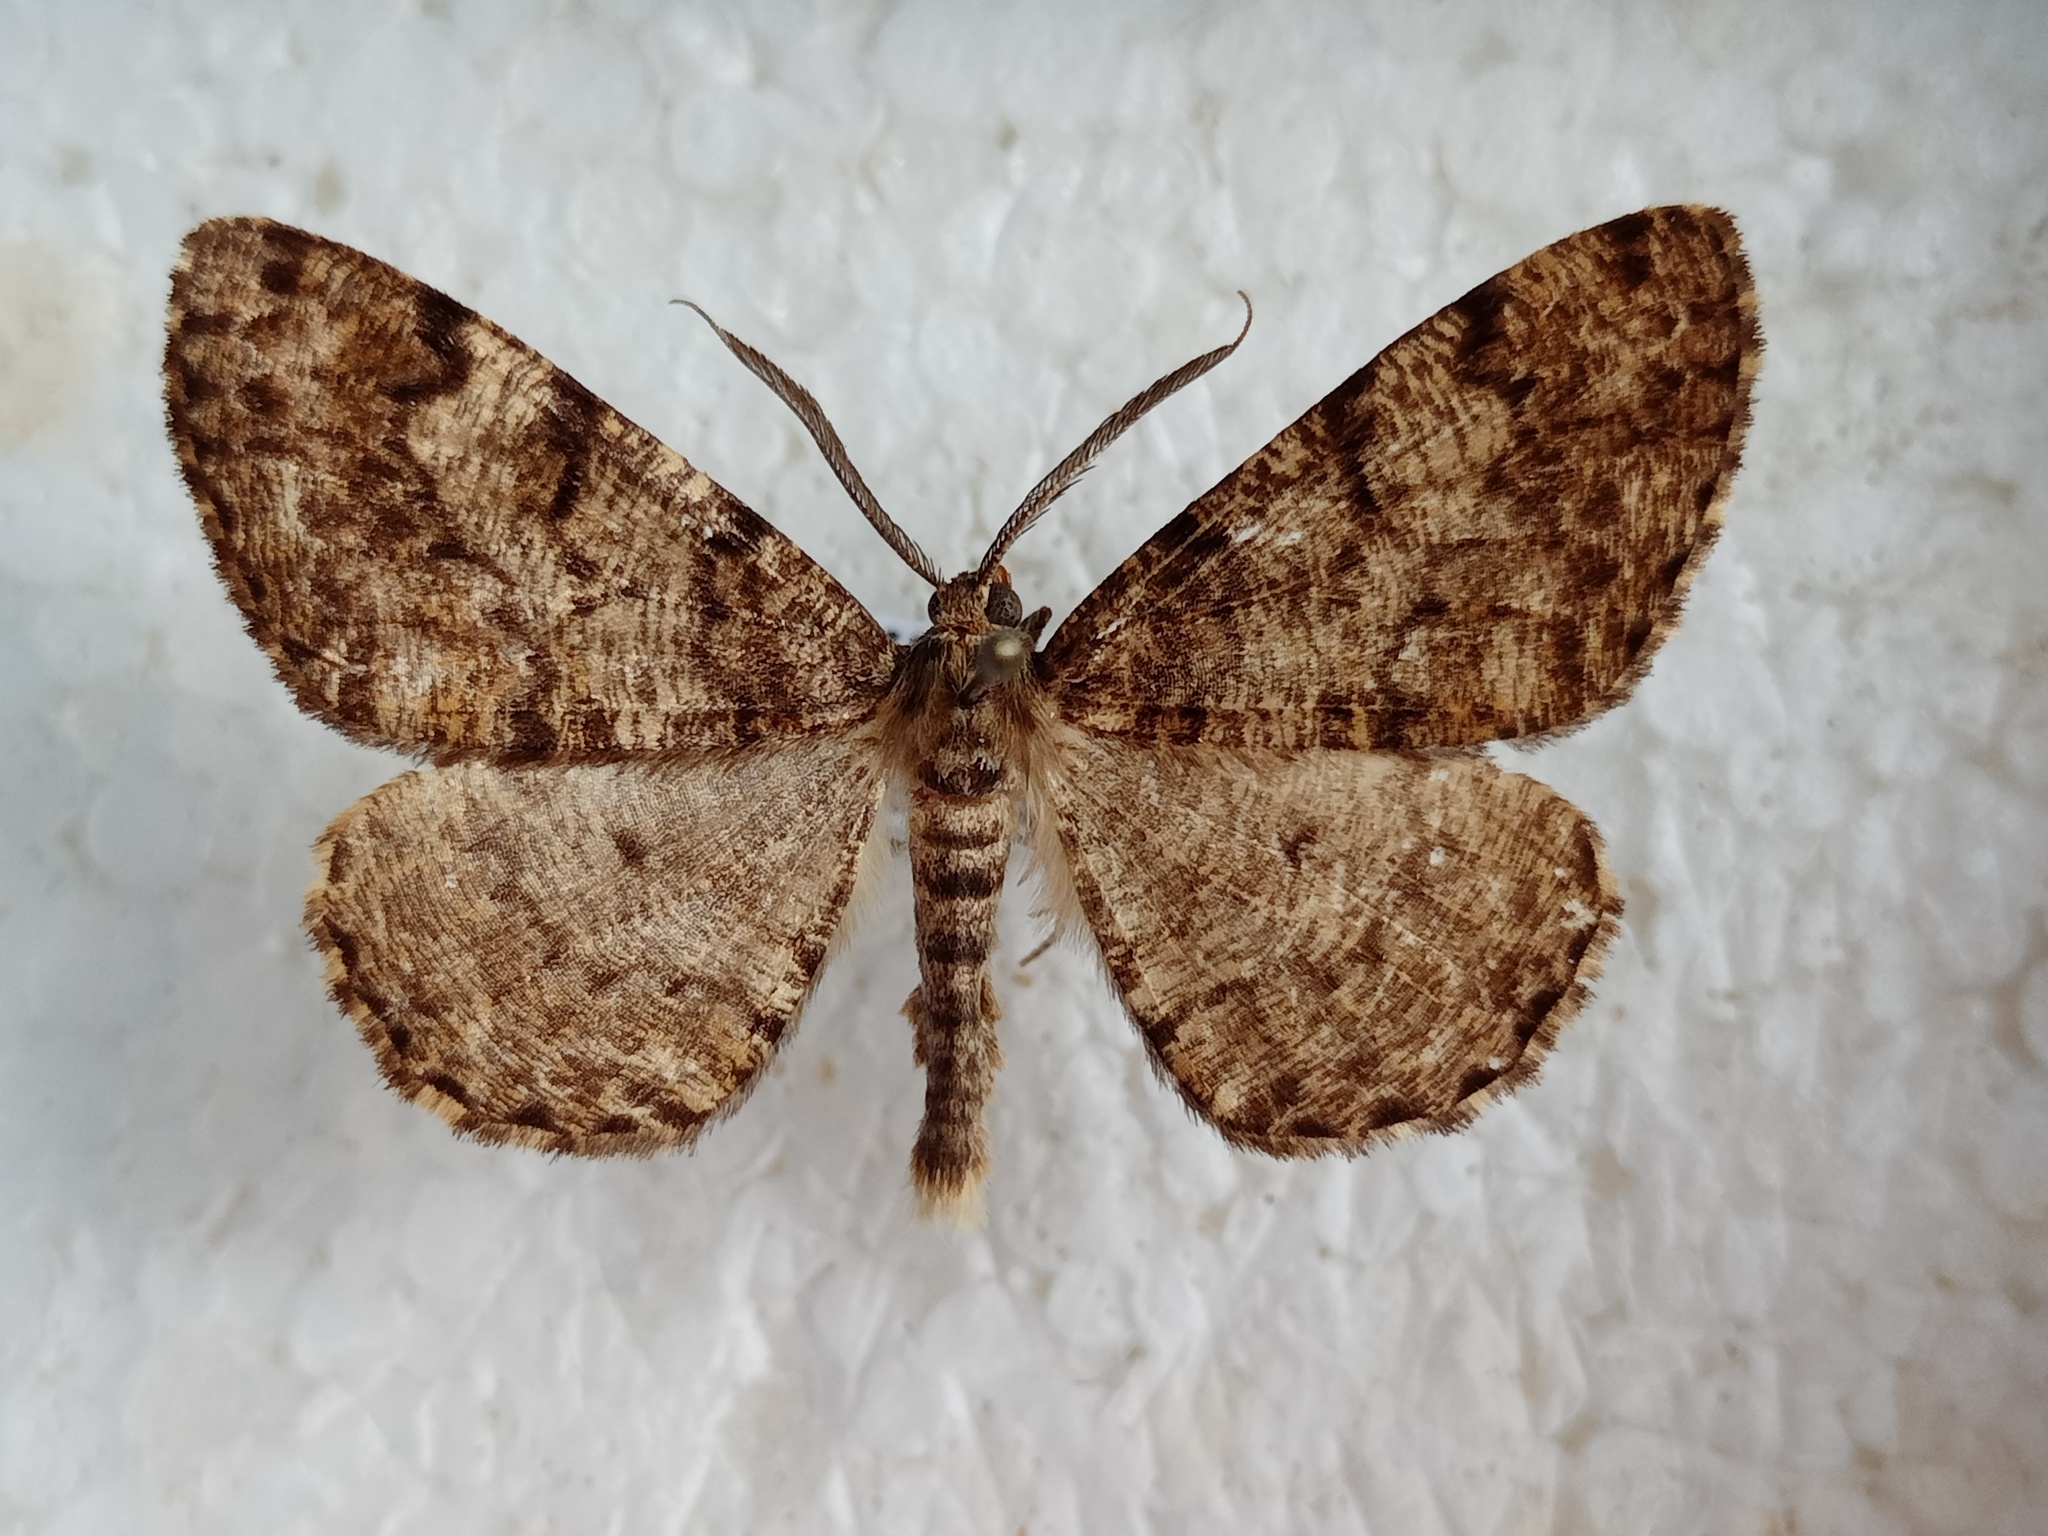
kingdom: Animalia
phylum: Arthropoda
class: Insecta
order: Lepidoptera
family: Geometridae
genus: Deileptenia
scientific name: Deileptenia ribeata
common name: Satin beauty
